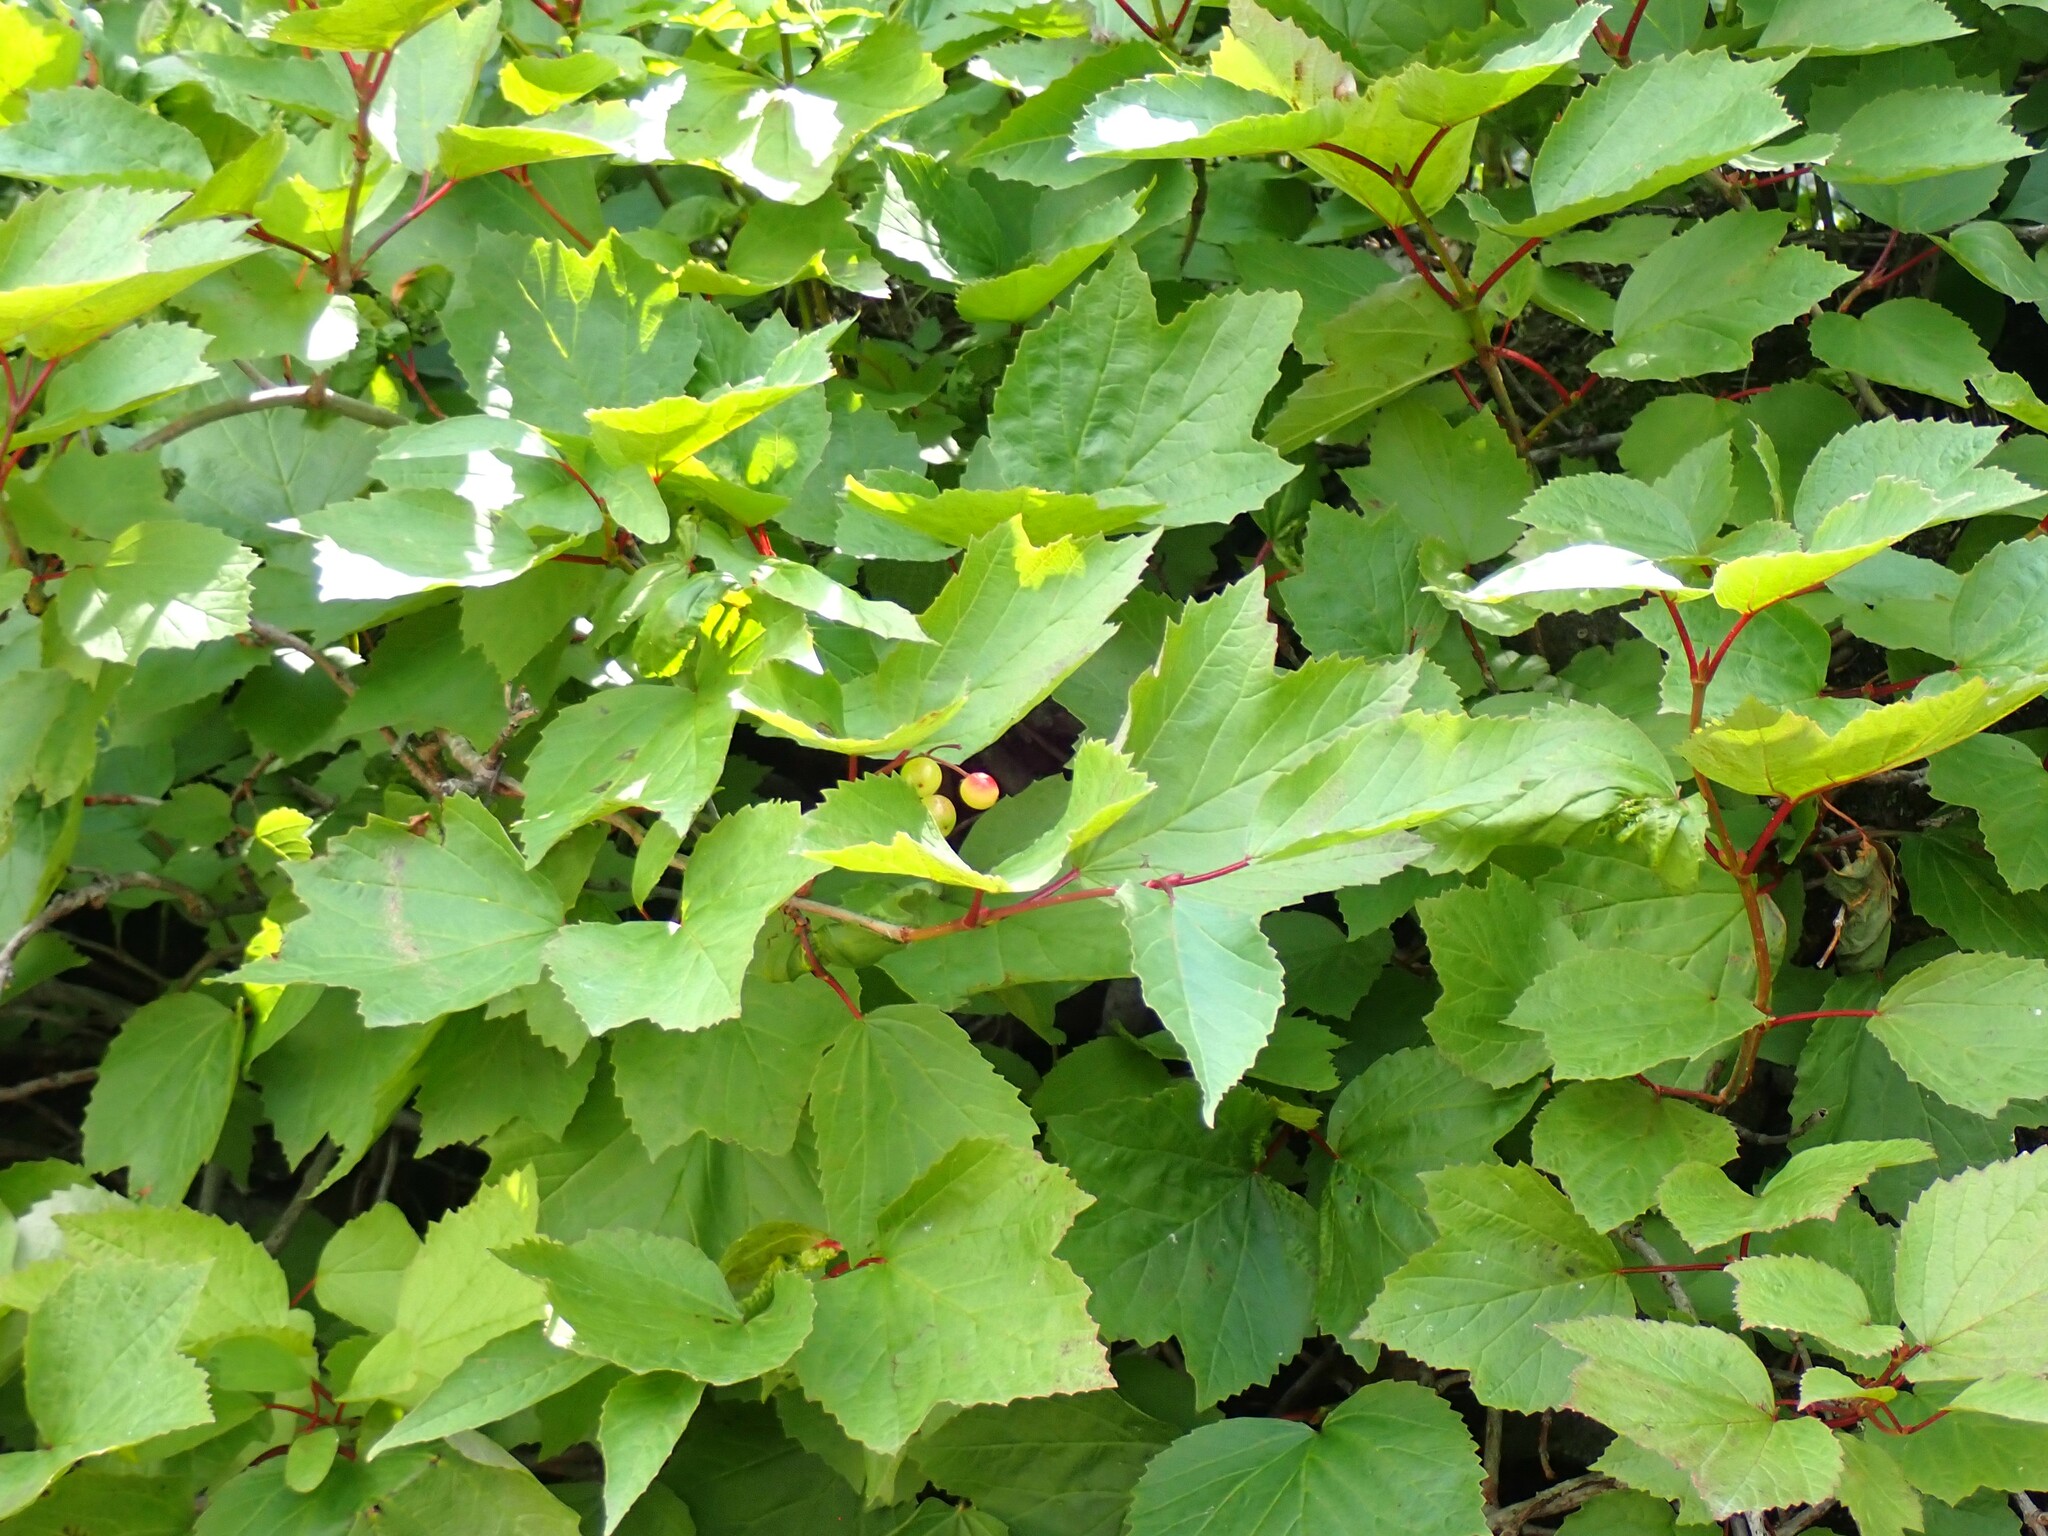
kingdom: Plantae
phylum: Tracheophyta
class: Magnoliopsida
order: Dipsacales
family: Viburnaceae
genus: Viburnum
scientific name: Viburnum edule
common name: Mooseberry
